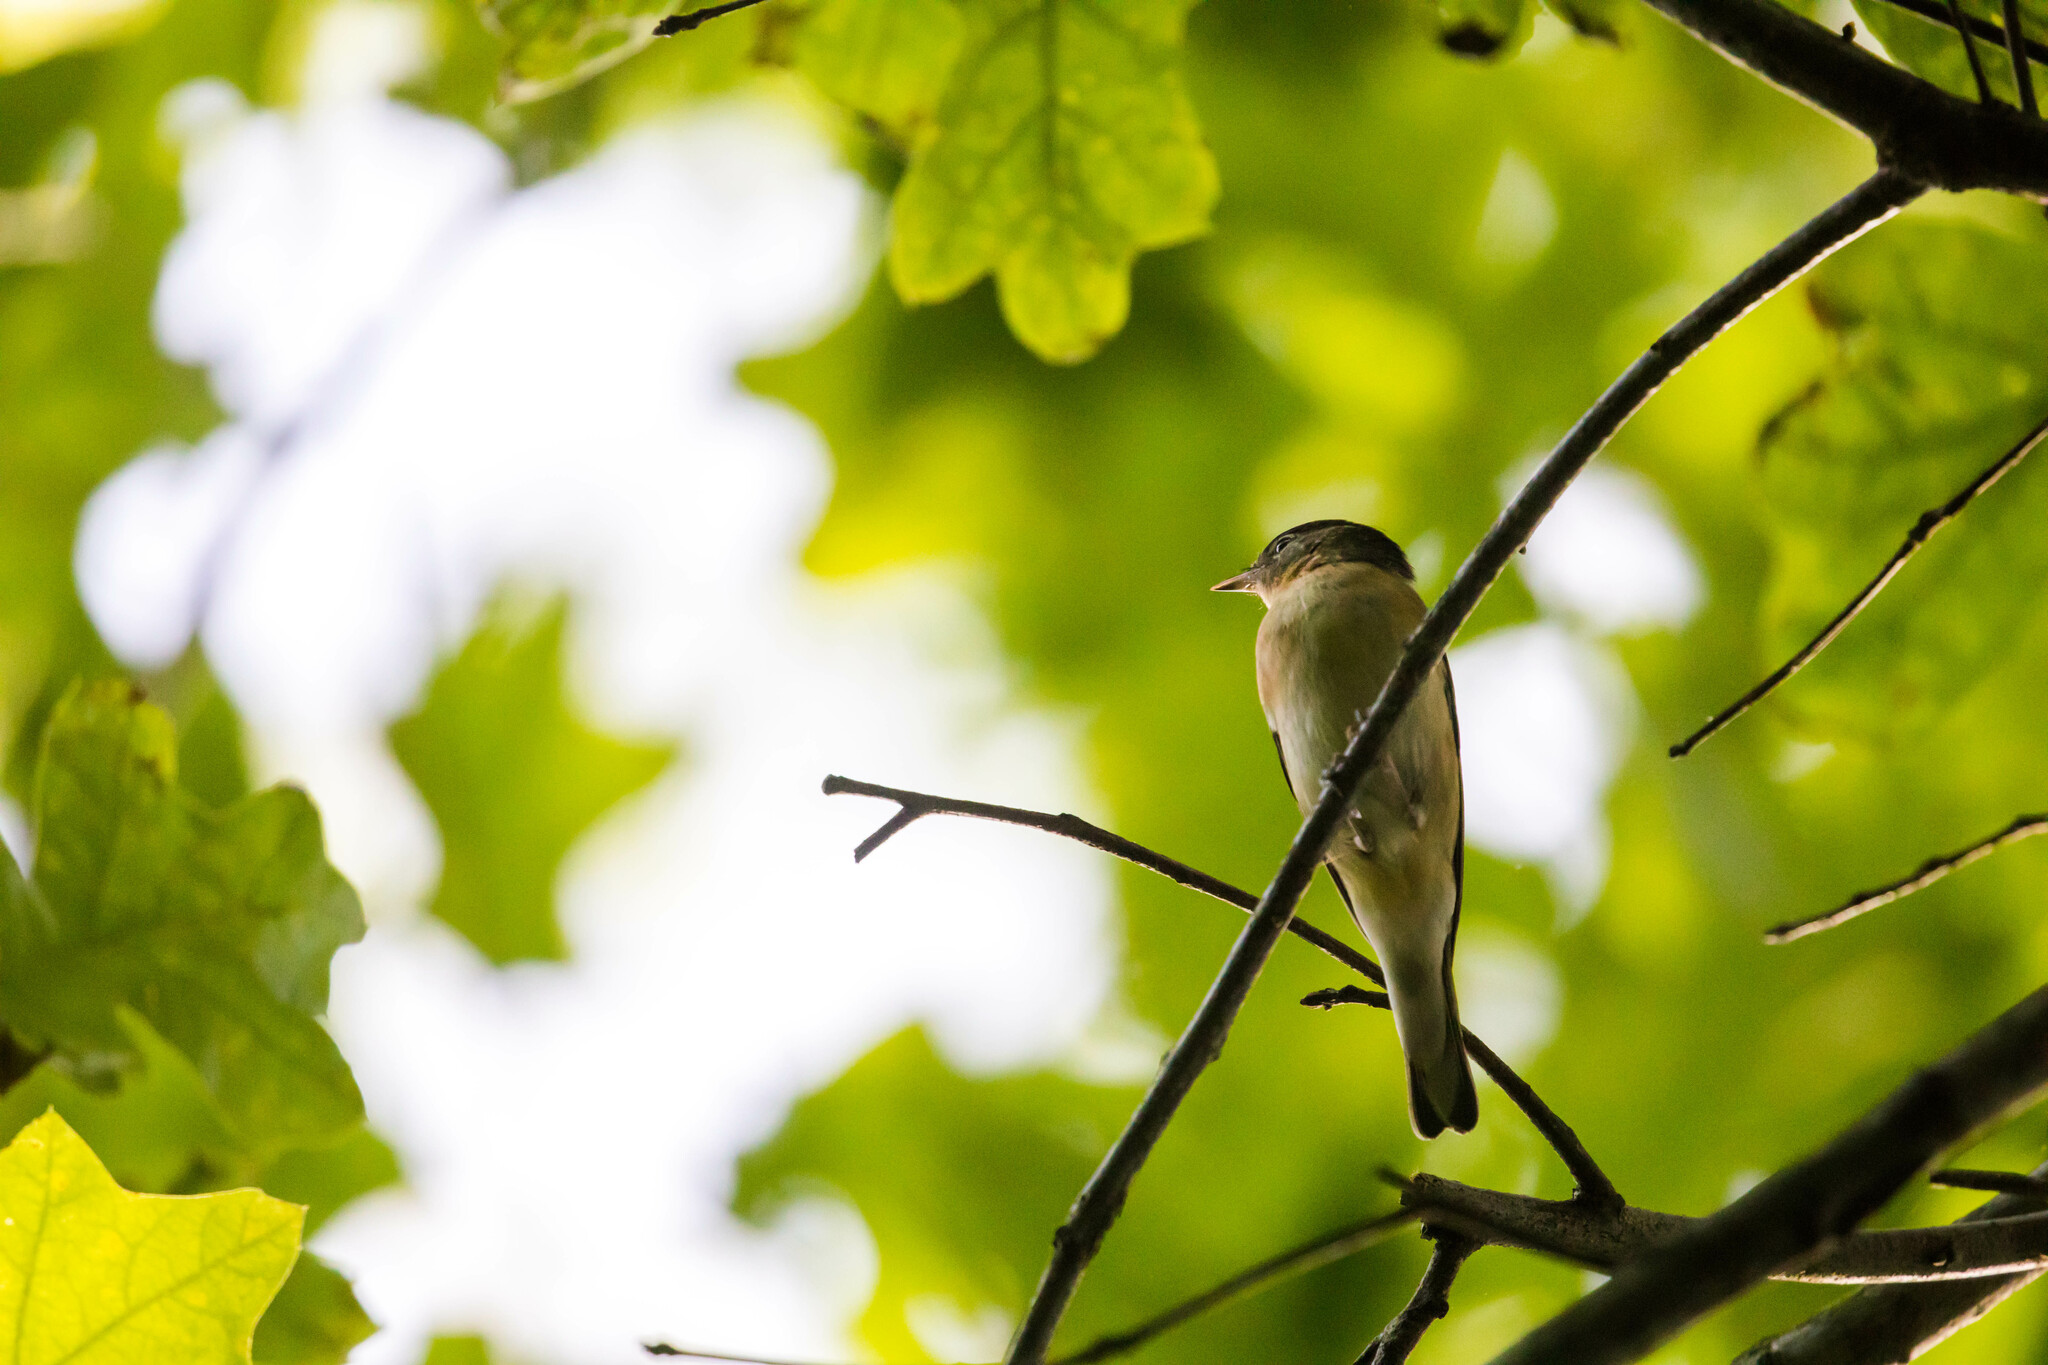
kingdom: Animalia
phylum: Chordata
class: Aves
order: Passeriformes
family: Parulidae
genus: Setophaga
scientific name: Setophaga castanea
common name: Bay-breasted warbler
